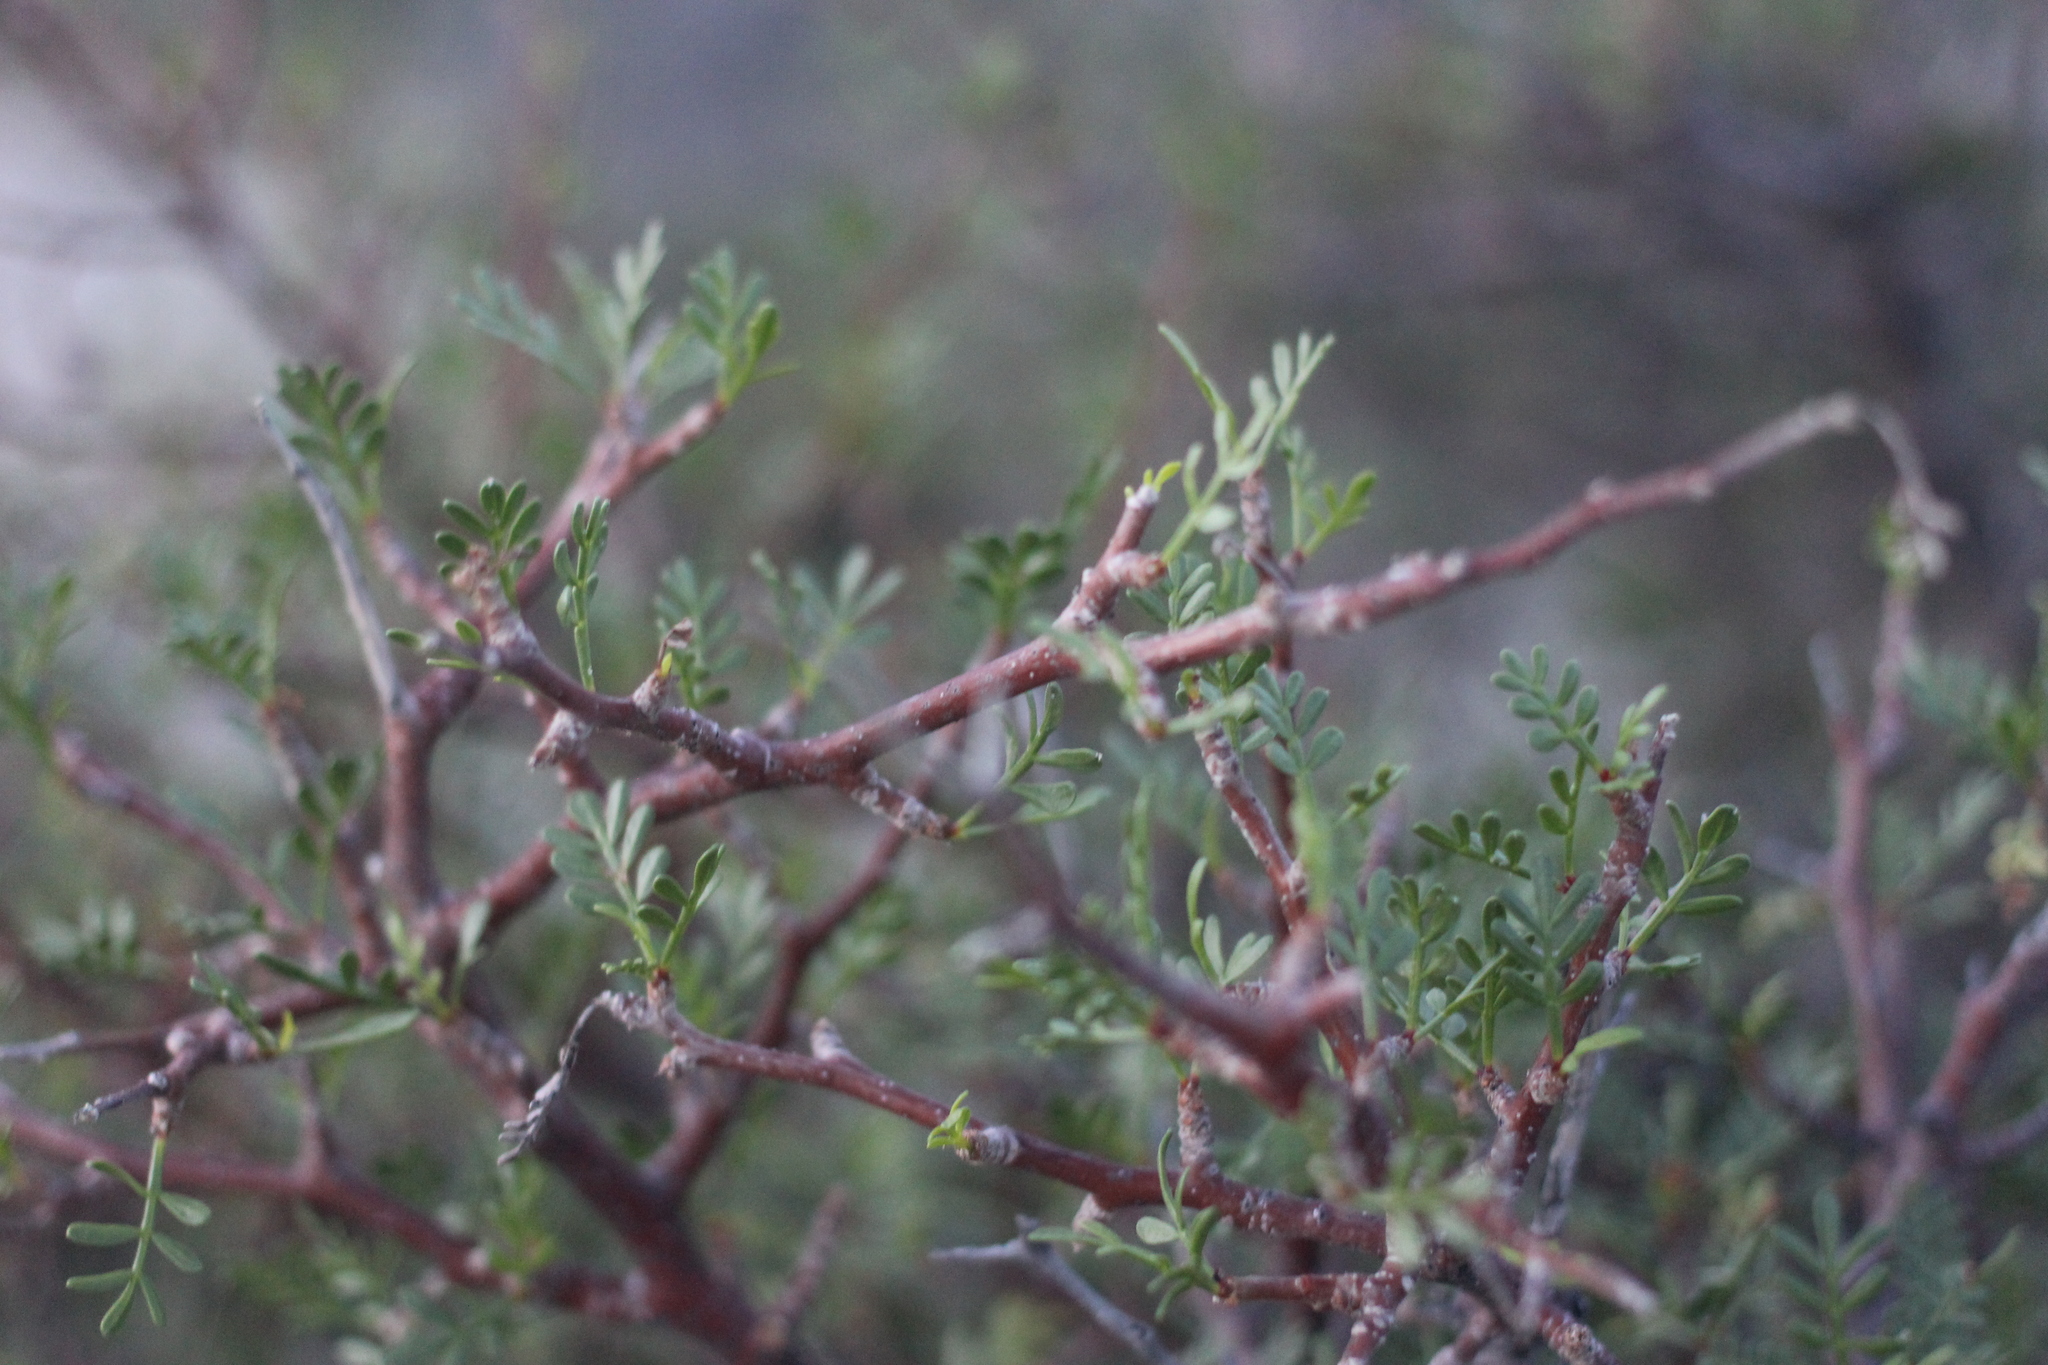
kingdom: Plantae
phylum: Tracheophyta
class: Magnoliopsida
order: Sapindales
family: Burseraceae
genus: Bursera
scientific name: Bursera microphylla
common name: Elephant tree
